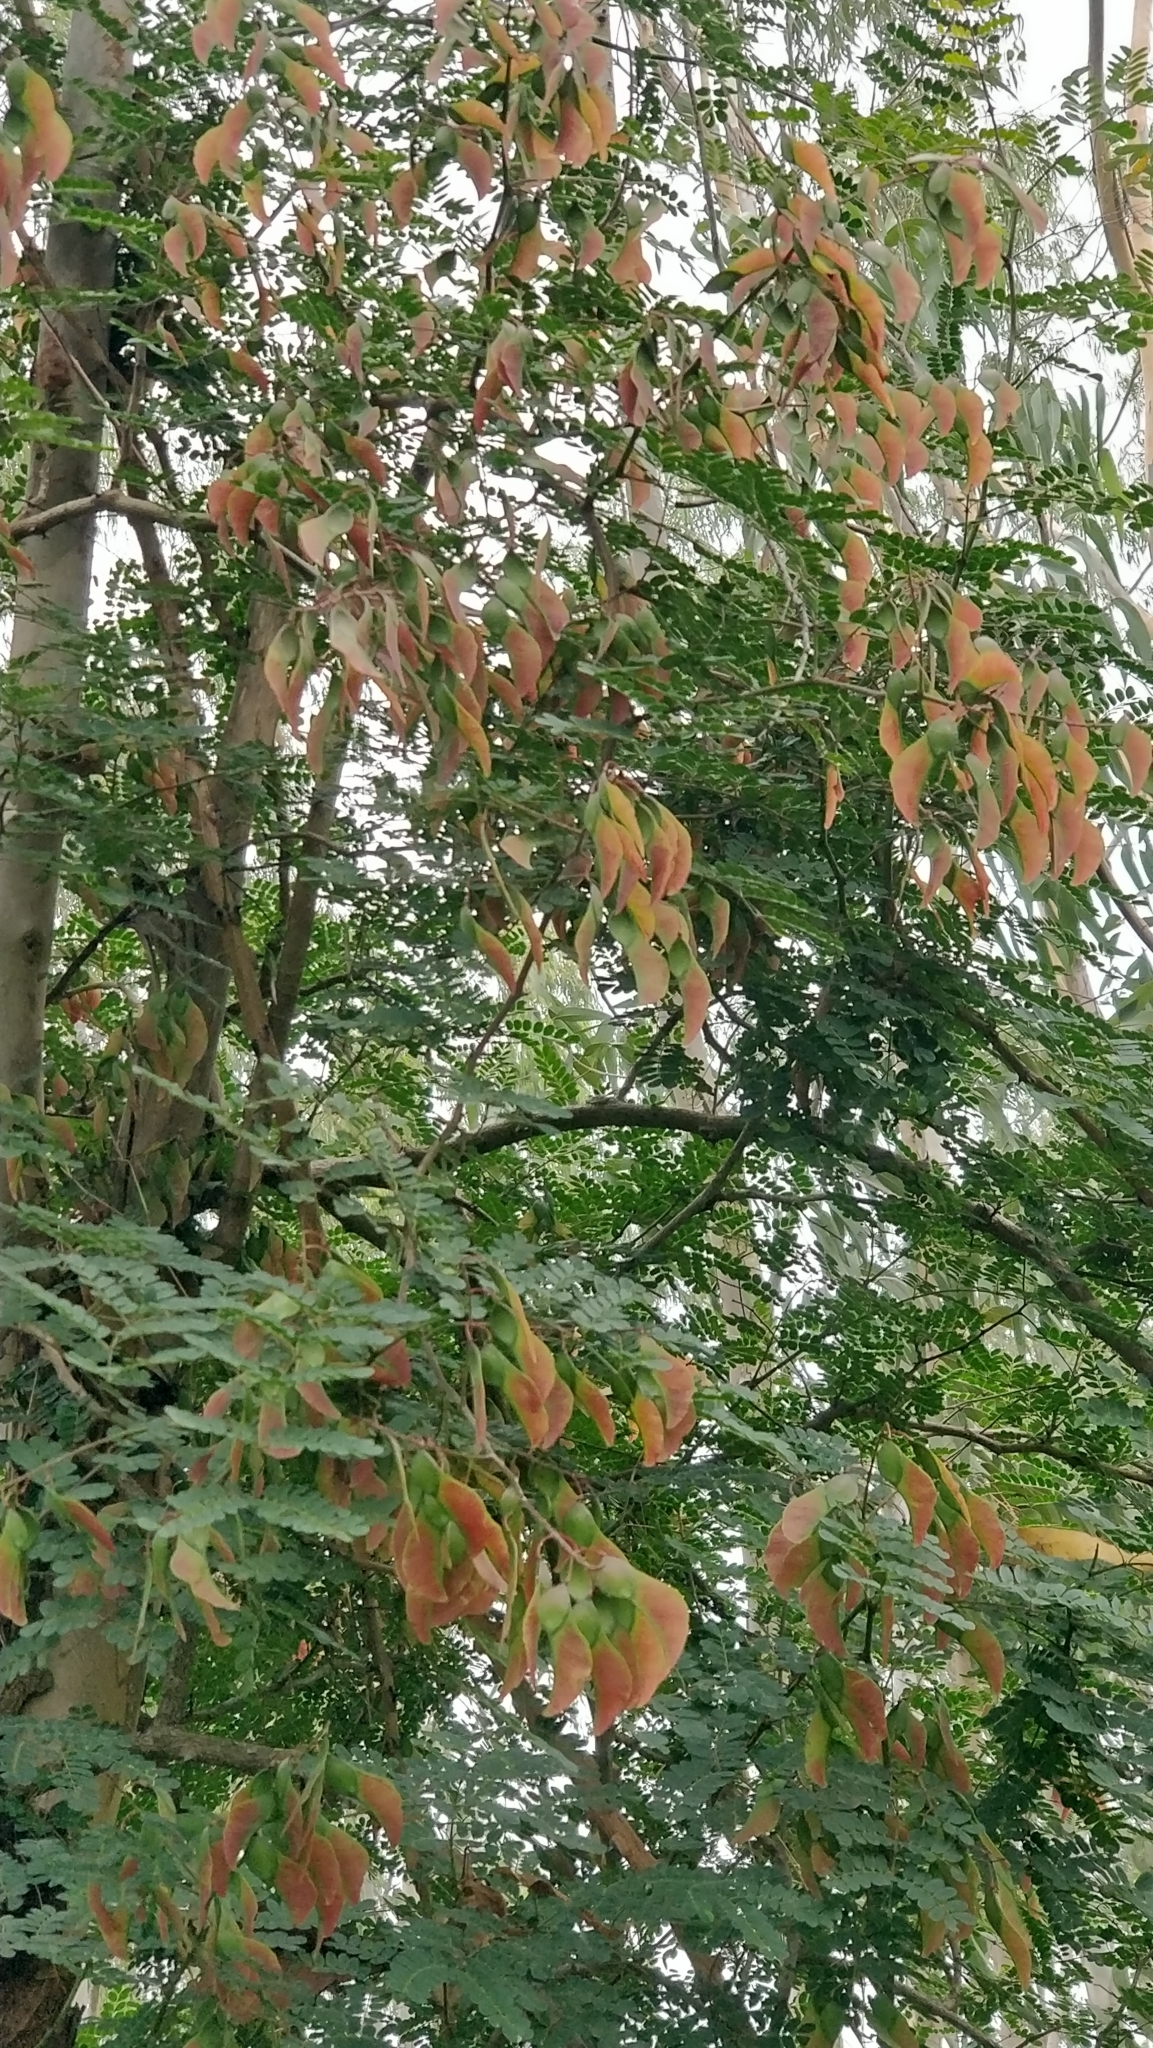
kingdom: Plantae
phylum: Tracheophyta
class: Magnoliopsida
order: Fabales
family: Fabaceae
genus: Pterolobium
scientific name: Pterolobium hexapetalum
